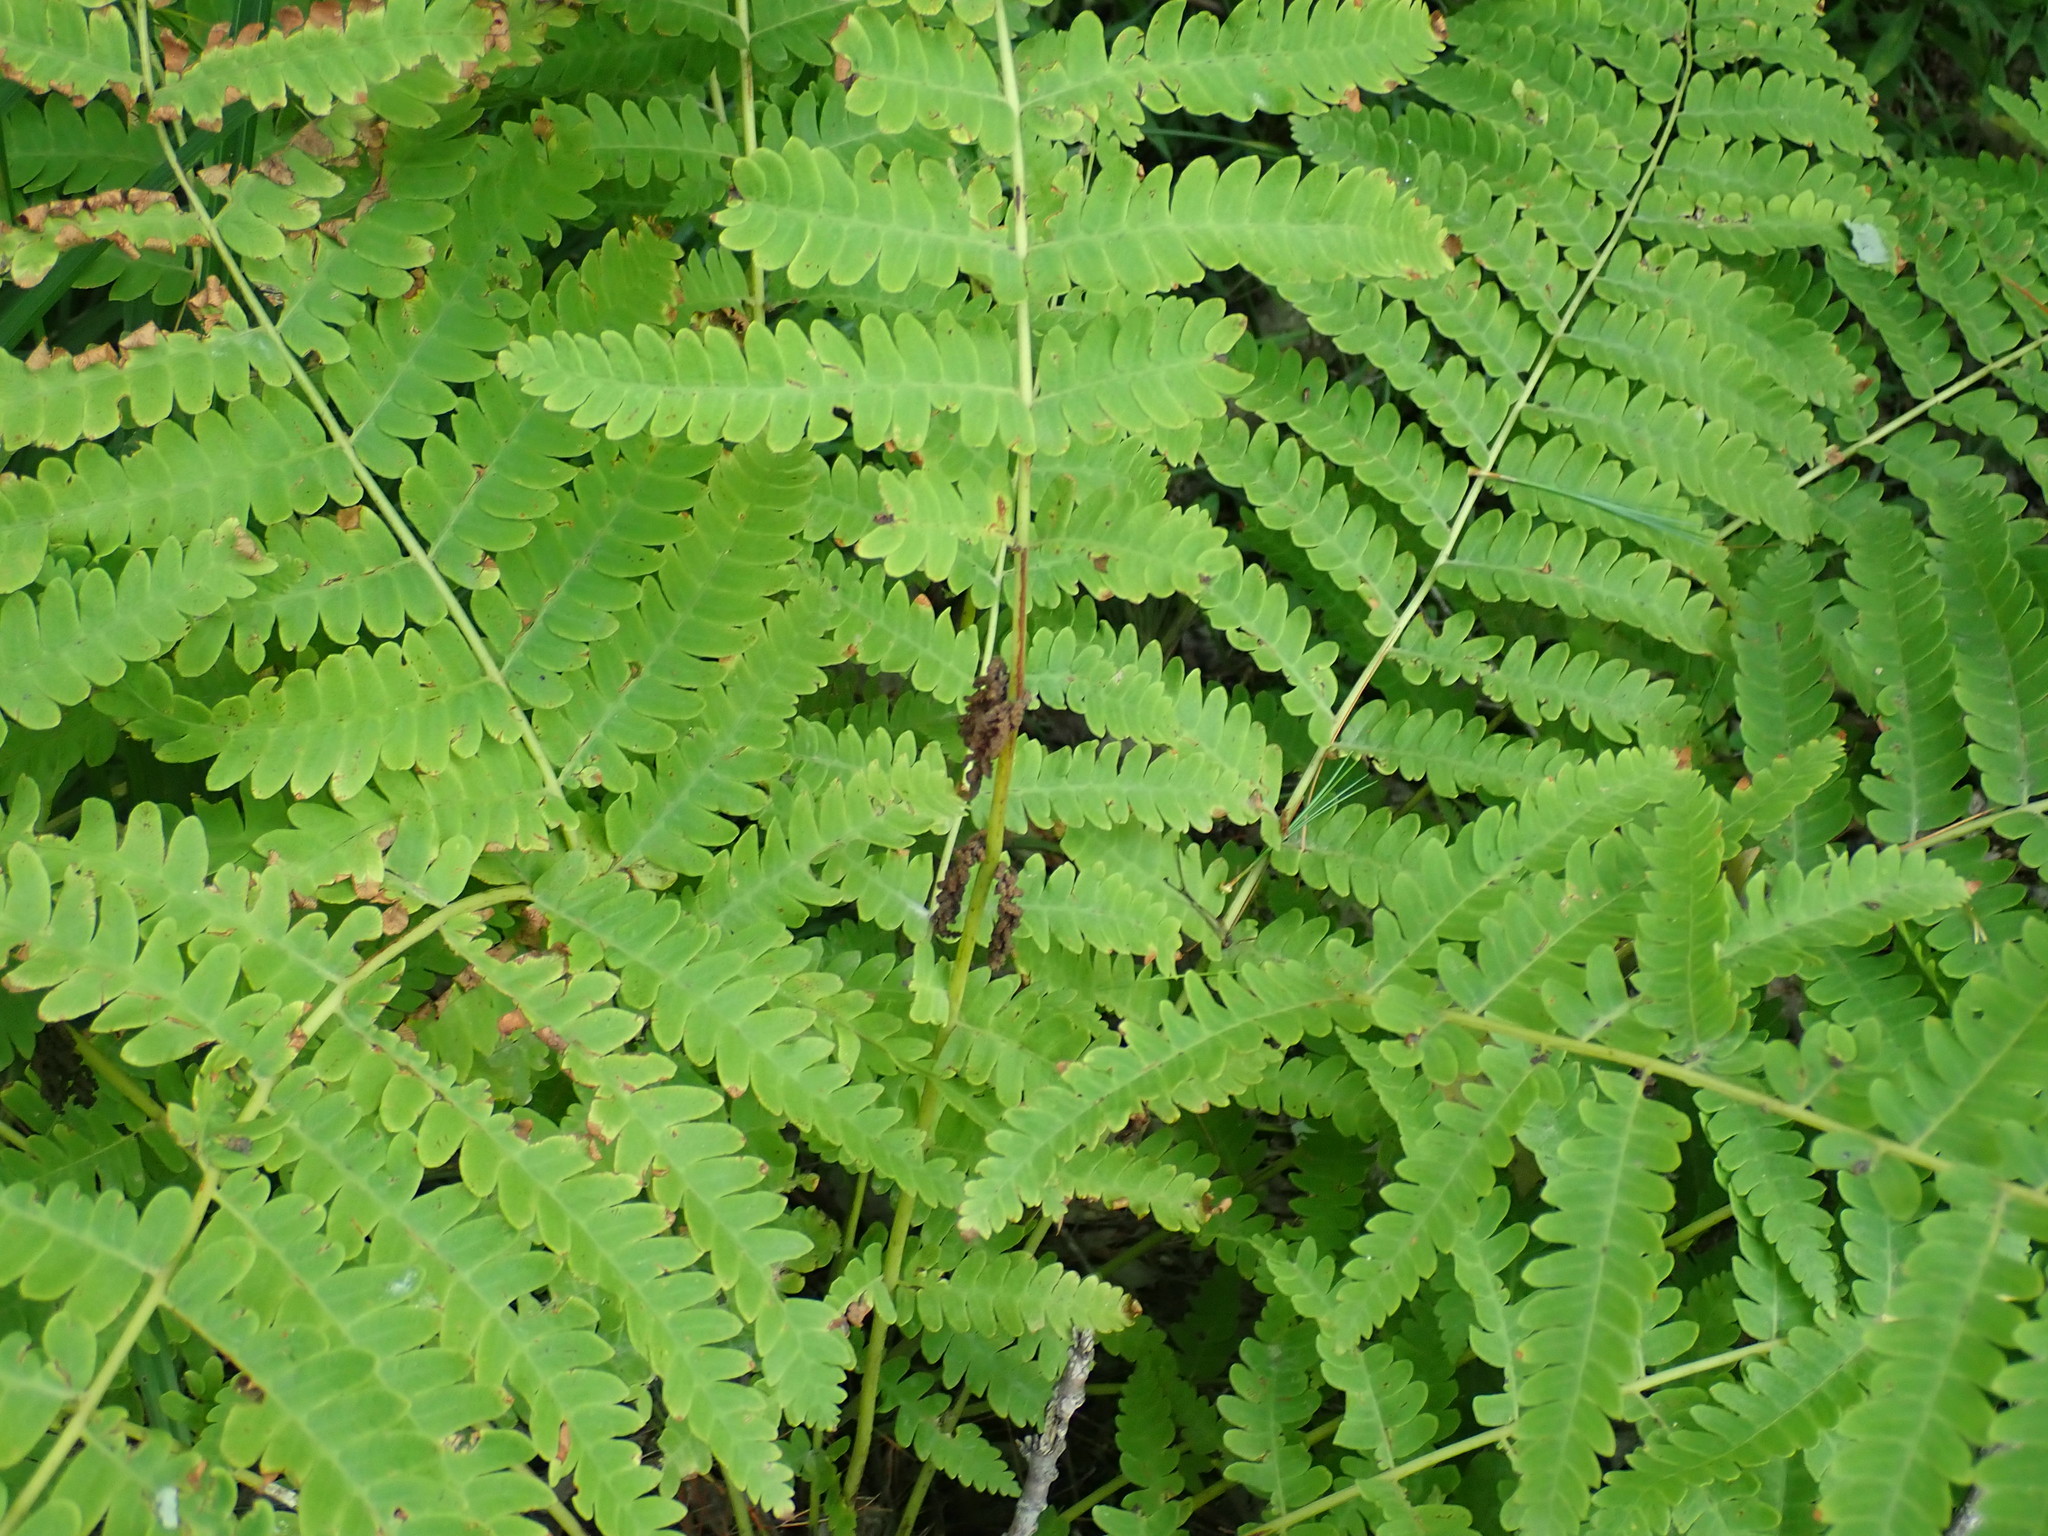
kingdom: Plantae
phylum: Tracheophyta
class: Polypodiopsida
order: Osmundales
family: Osmundaceae
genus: Claytosmunda
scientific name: Claytosmunda claytoniana
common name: Clayton's fern
